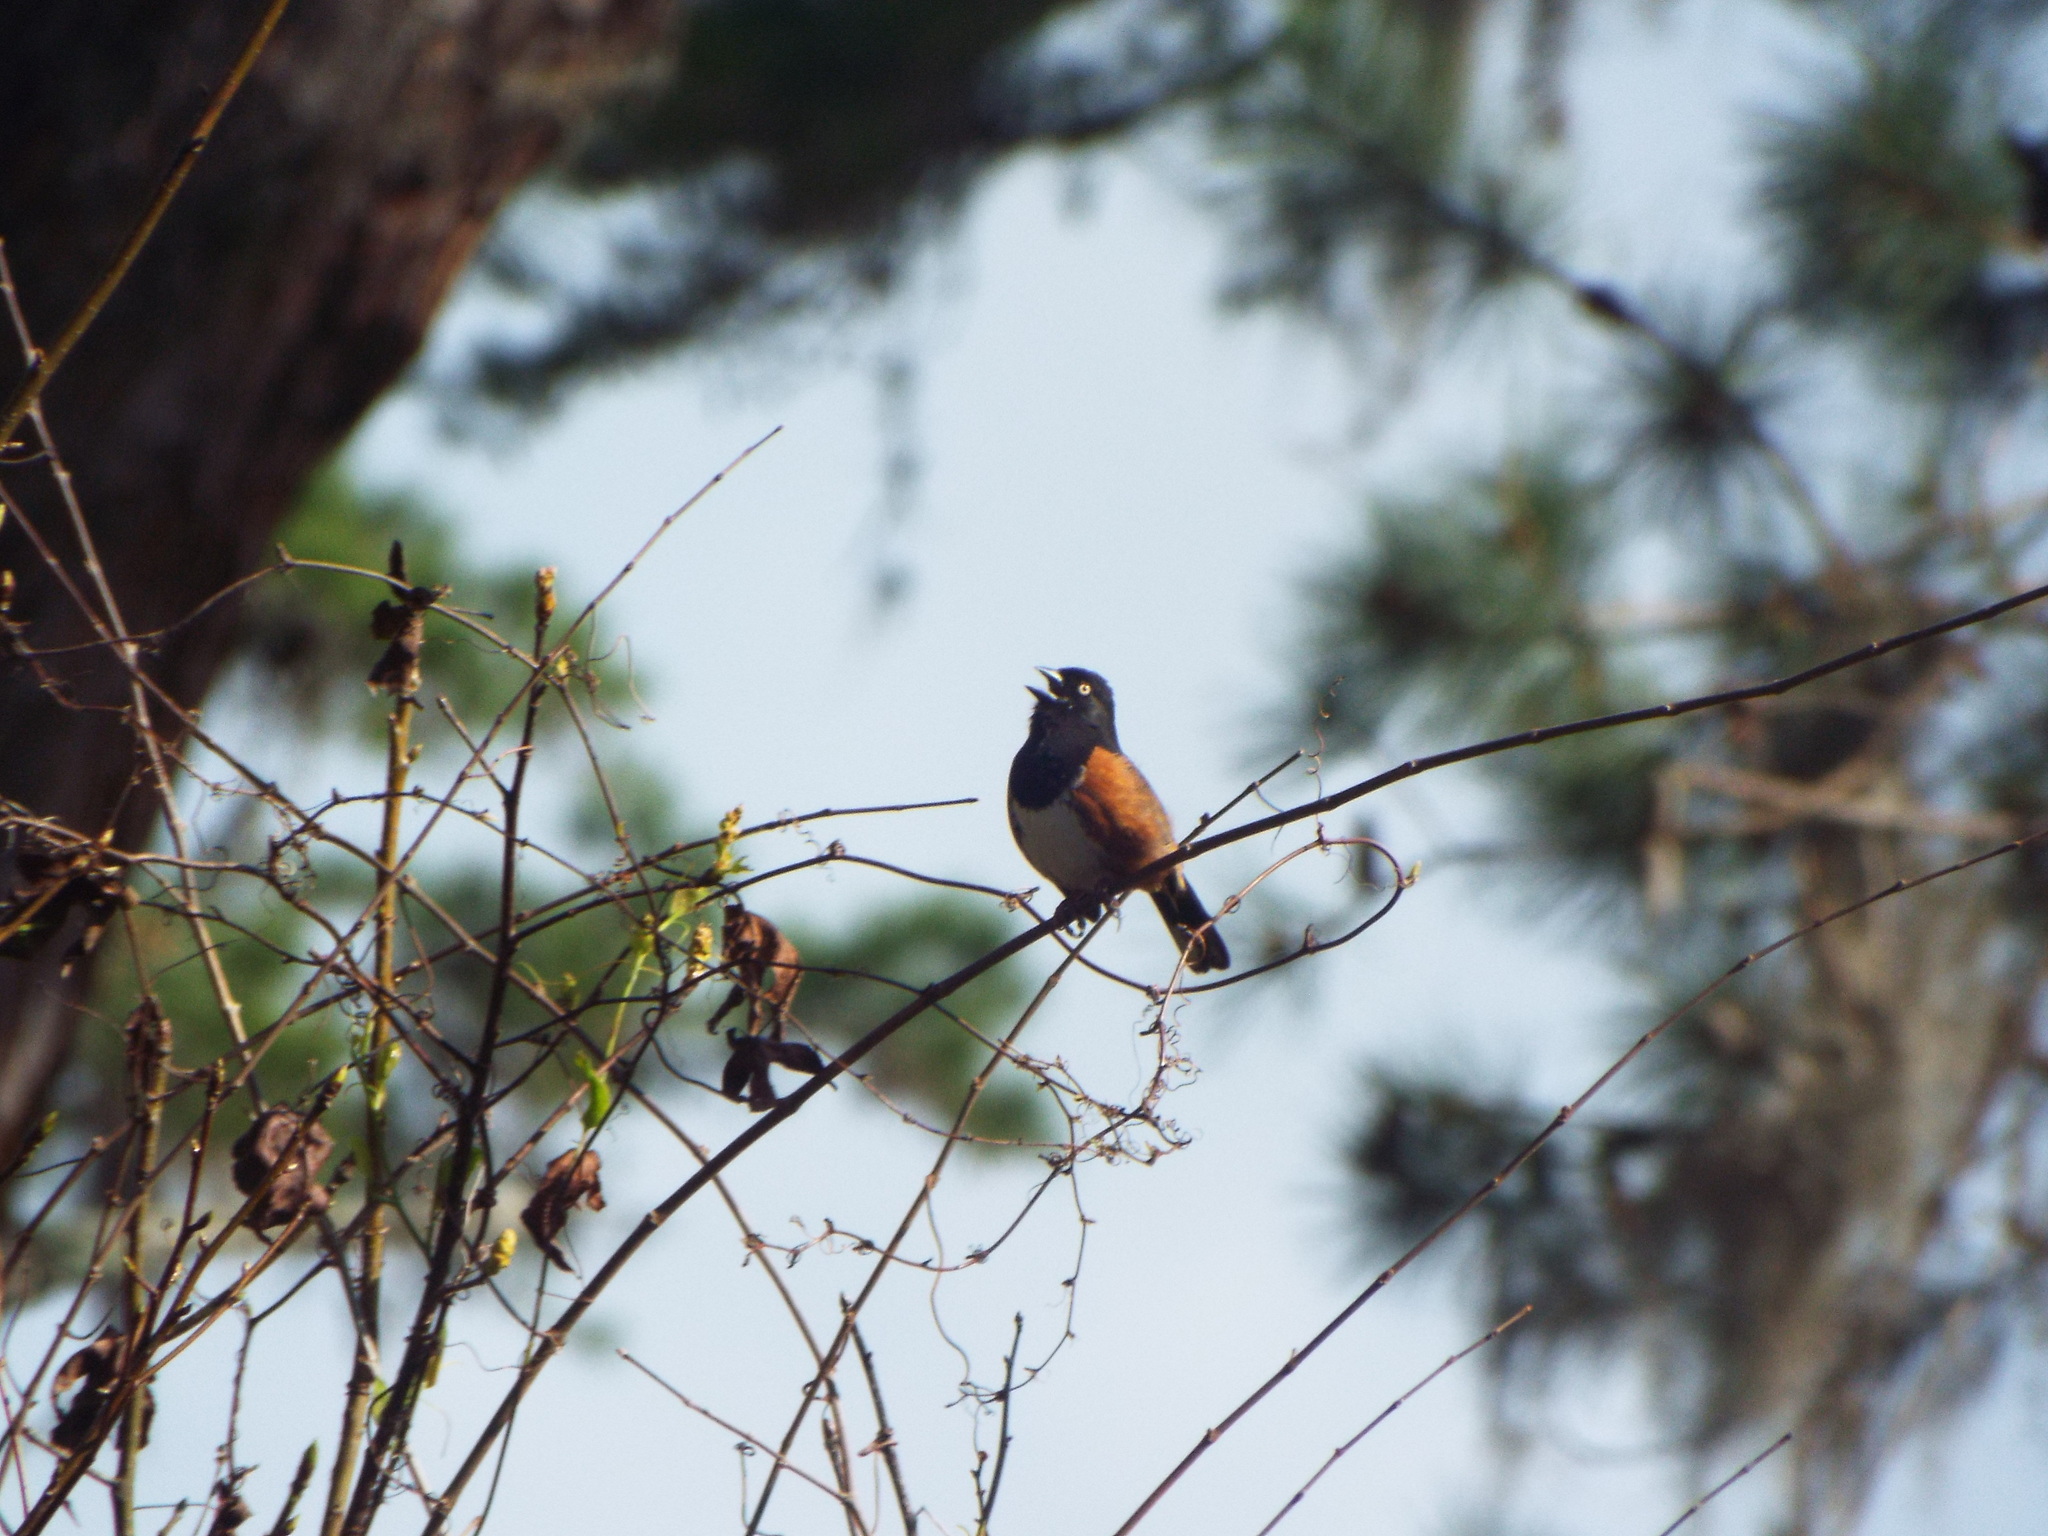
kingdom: Animalia
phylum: Chordata
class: Aves
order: Passeriformes
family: Passerellidae
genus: Pipilo
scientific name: Pipilo erythrophthalmus
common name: Eastern towhee
